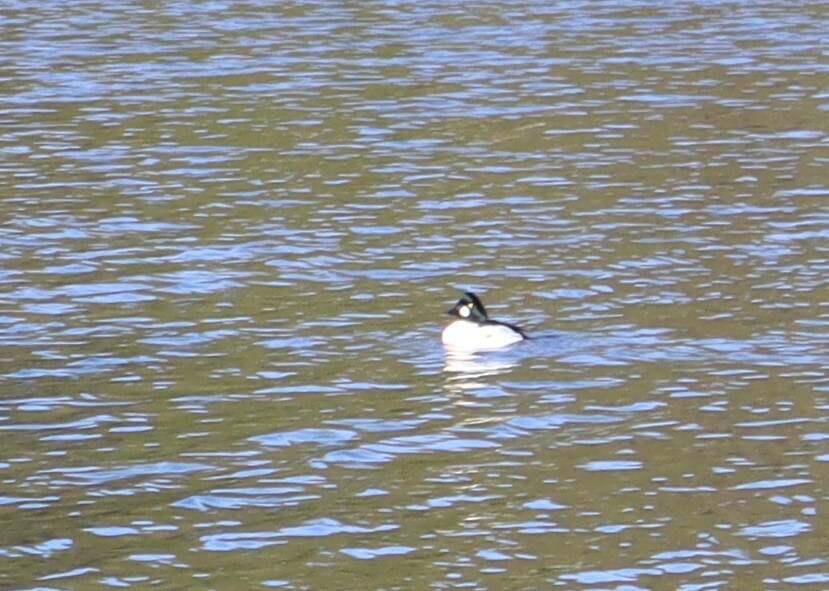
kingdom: Animalia
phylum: Chordata
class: Aves
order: Anseriformes
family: Anatidae
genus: Bucephala
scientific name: Bucephala clangula
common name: Common goldeneye
